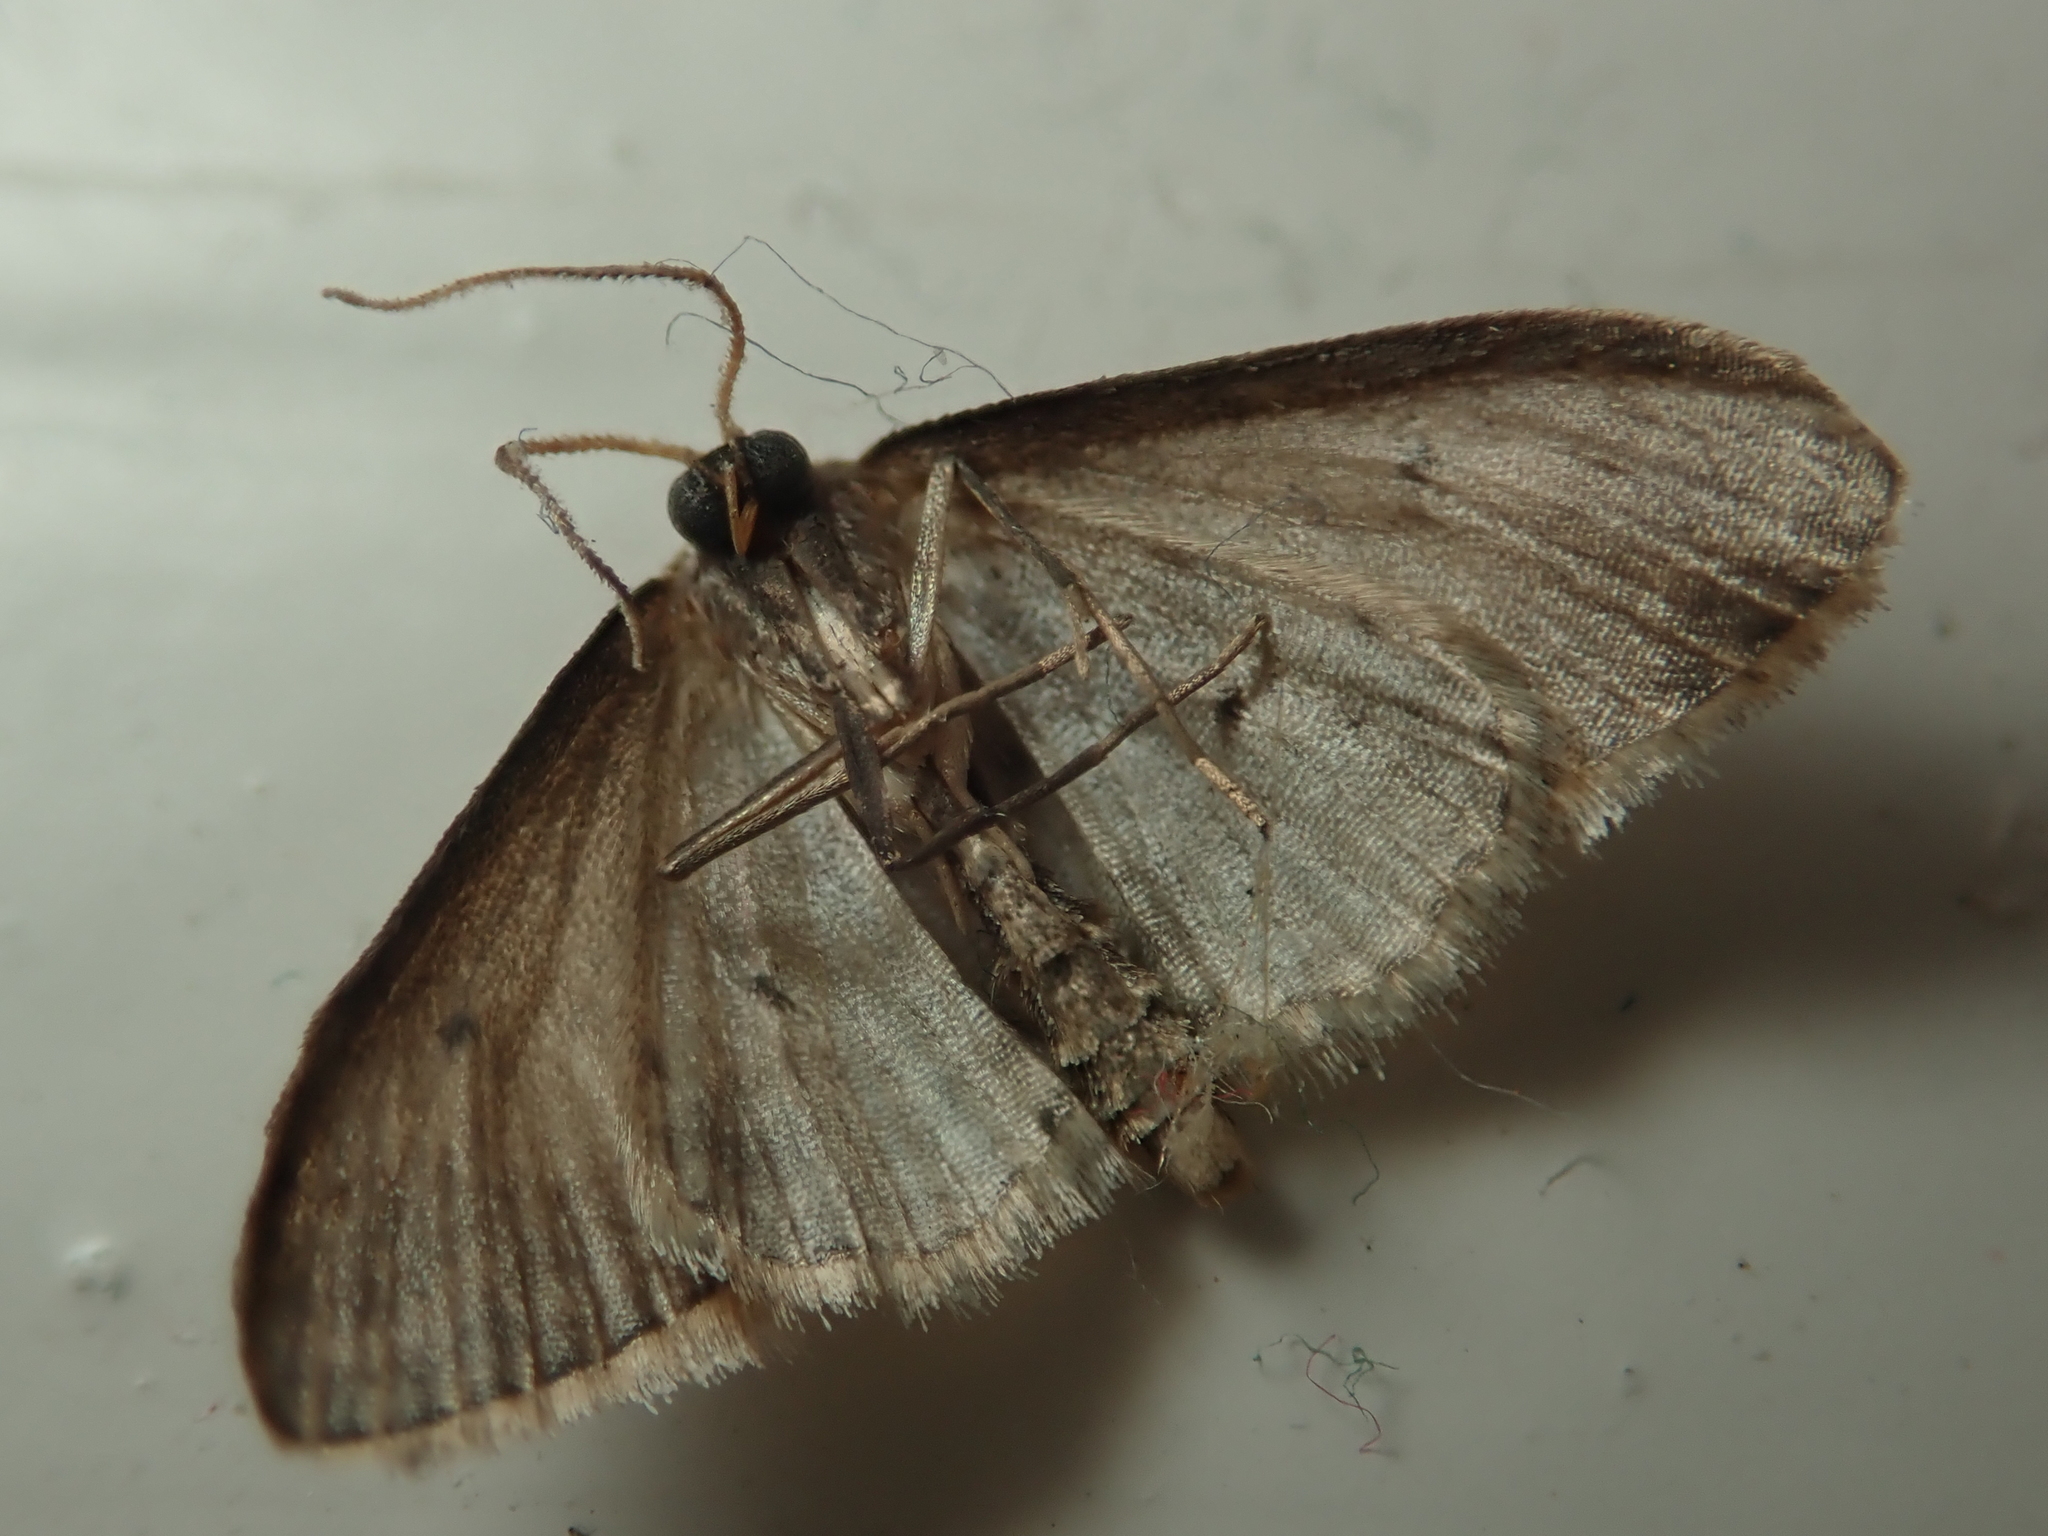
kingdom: Animalia
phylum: Arthropoda
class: Insecta
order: Lepidoptera
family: Geometridae
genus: Idaea
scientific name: Idaea seriata
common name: Small dusty wave
